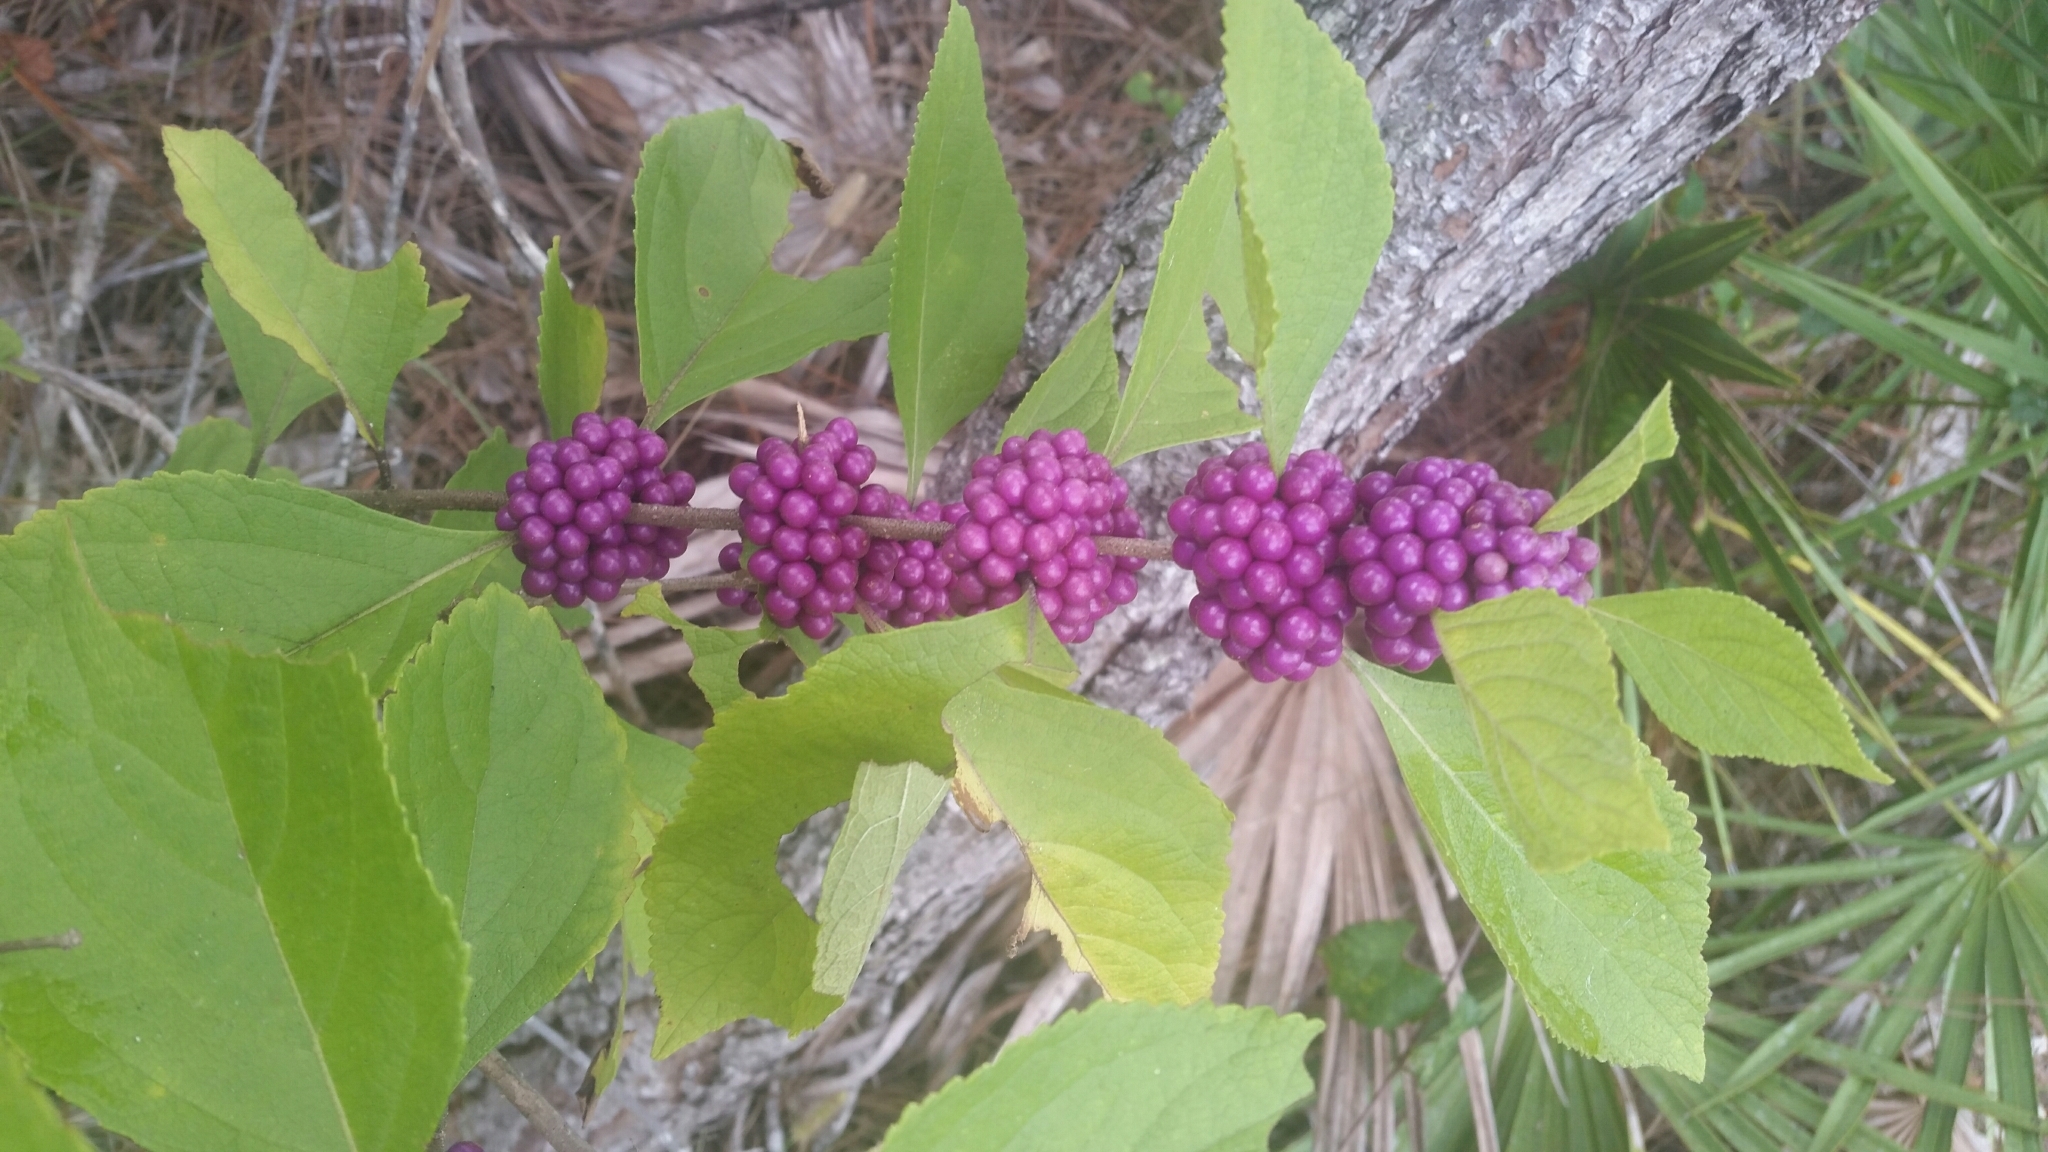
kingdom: Plantae
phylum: Tracheophyta
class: Magnoliopsida
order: Lamiales
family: Lamiaceae
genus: Callicarpa
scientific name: Callicarpa americana
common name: American beautyberry
